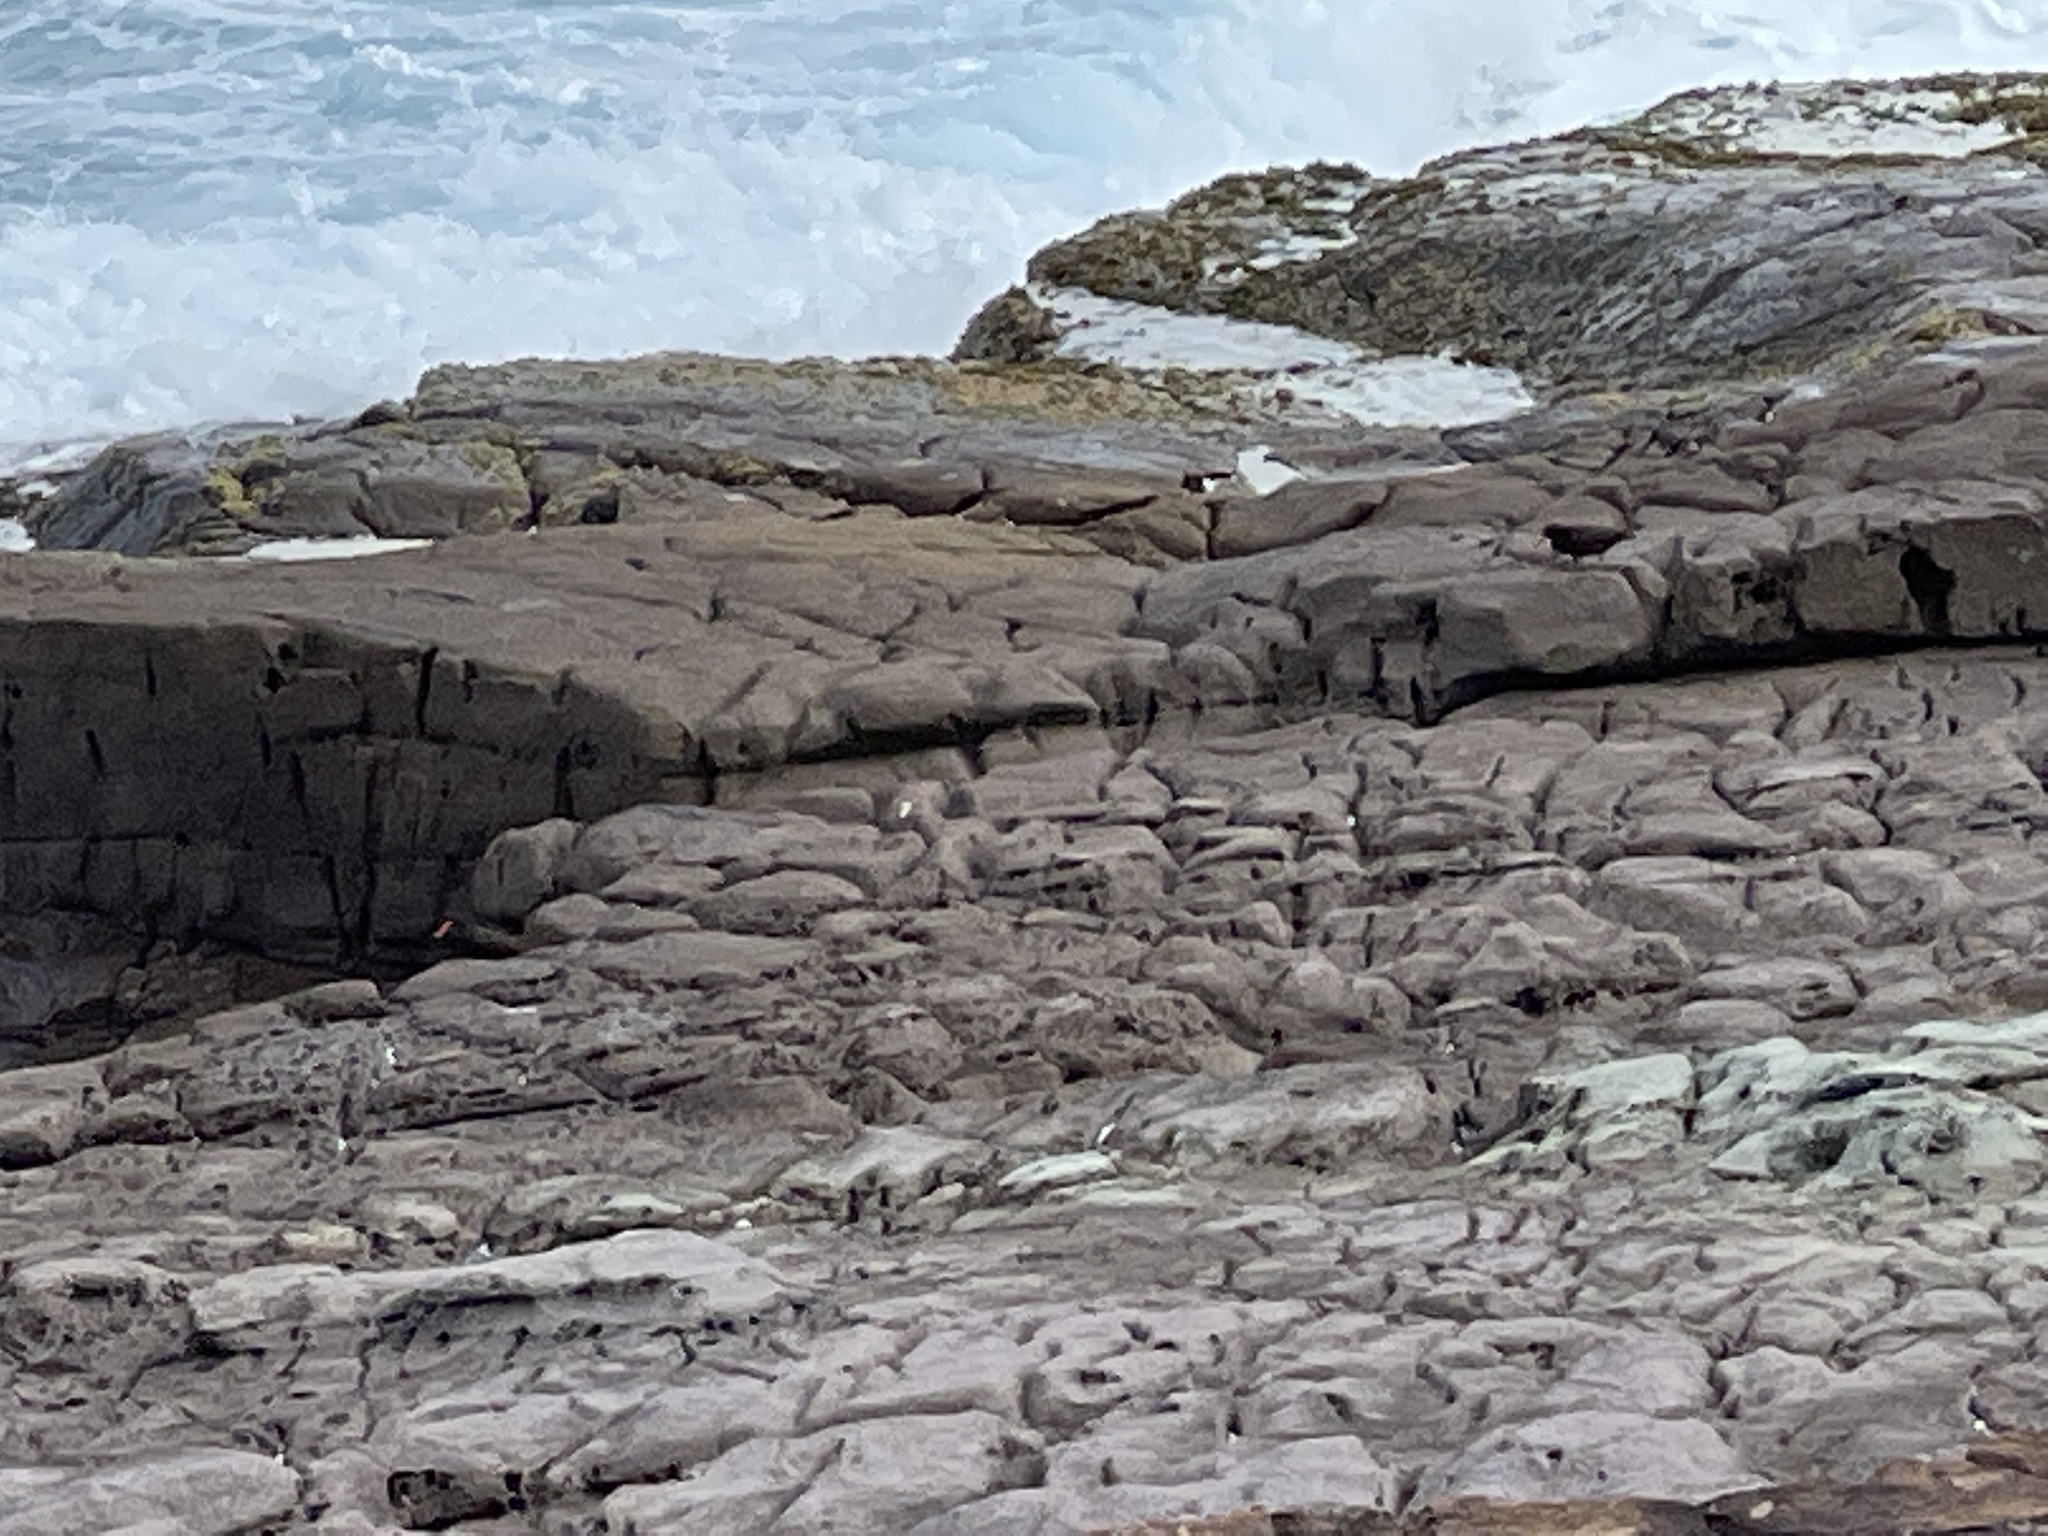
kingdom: Animalia
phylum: Chordata
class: Aves
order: Charadriiformes
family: Haematopodidae
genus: Haematopus
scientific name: Haematopus fuliginosus
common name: Sooty oystercatcher
